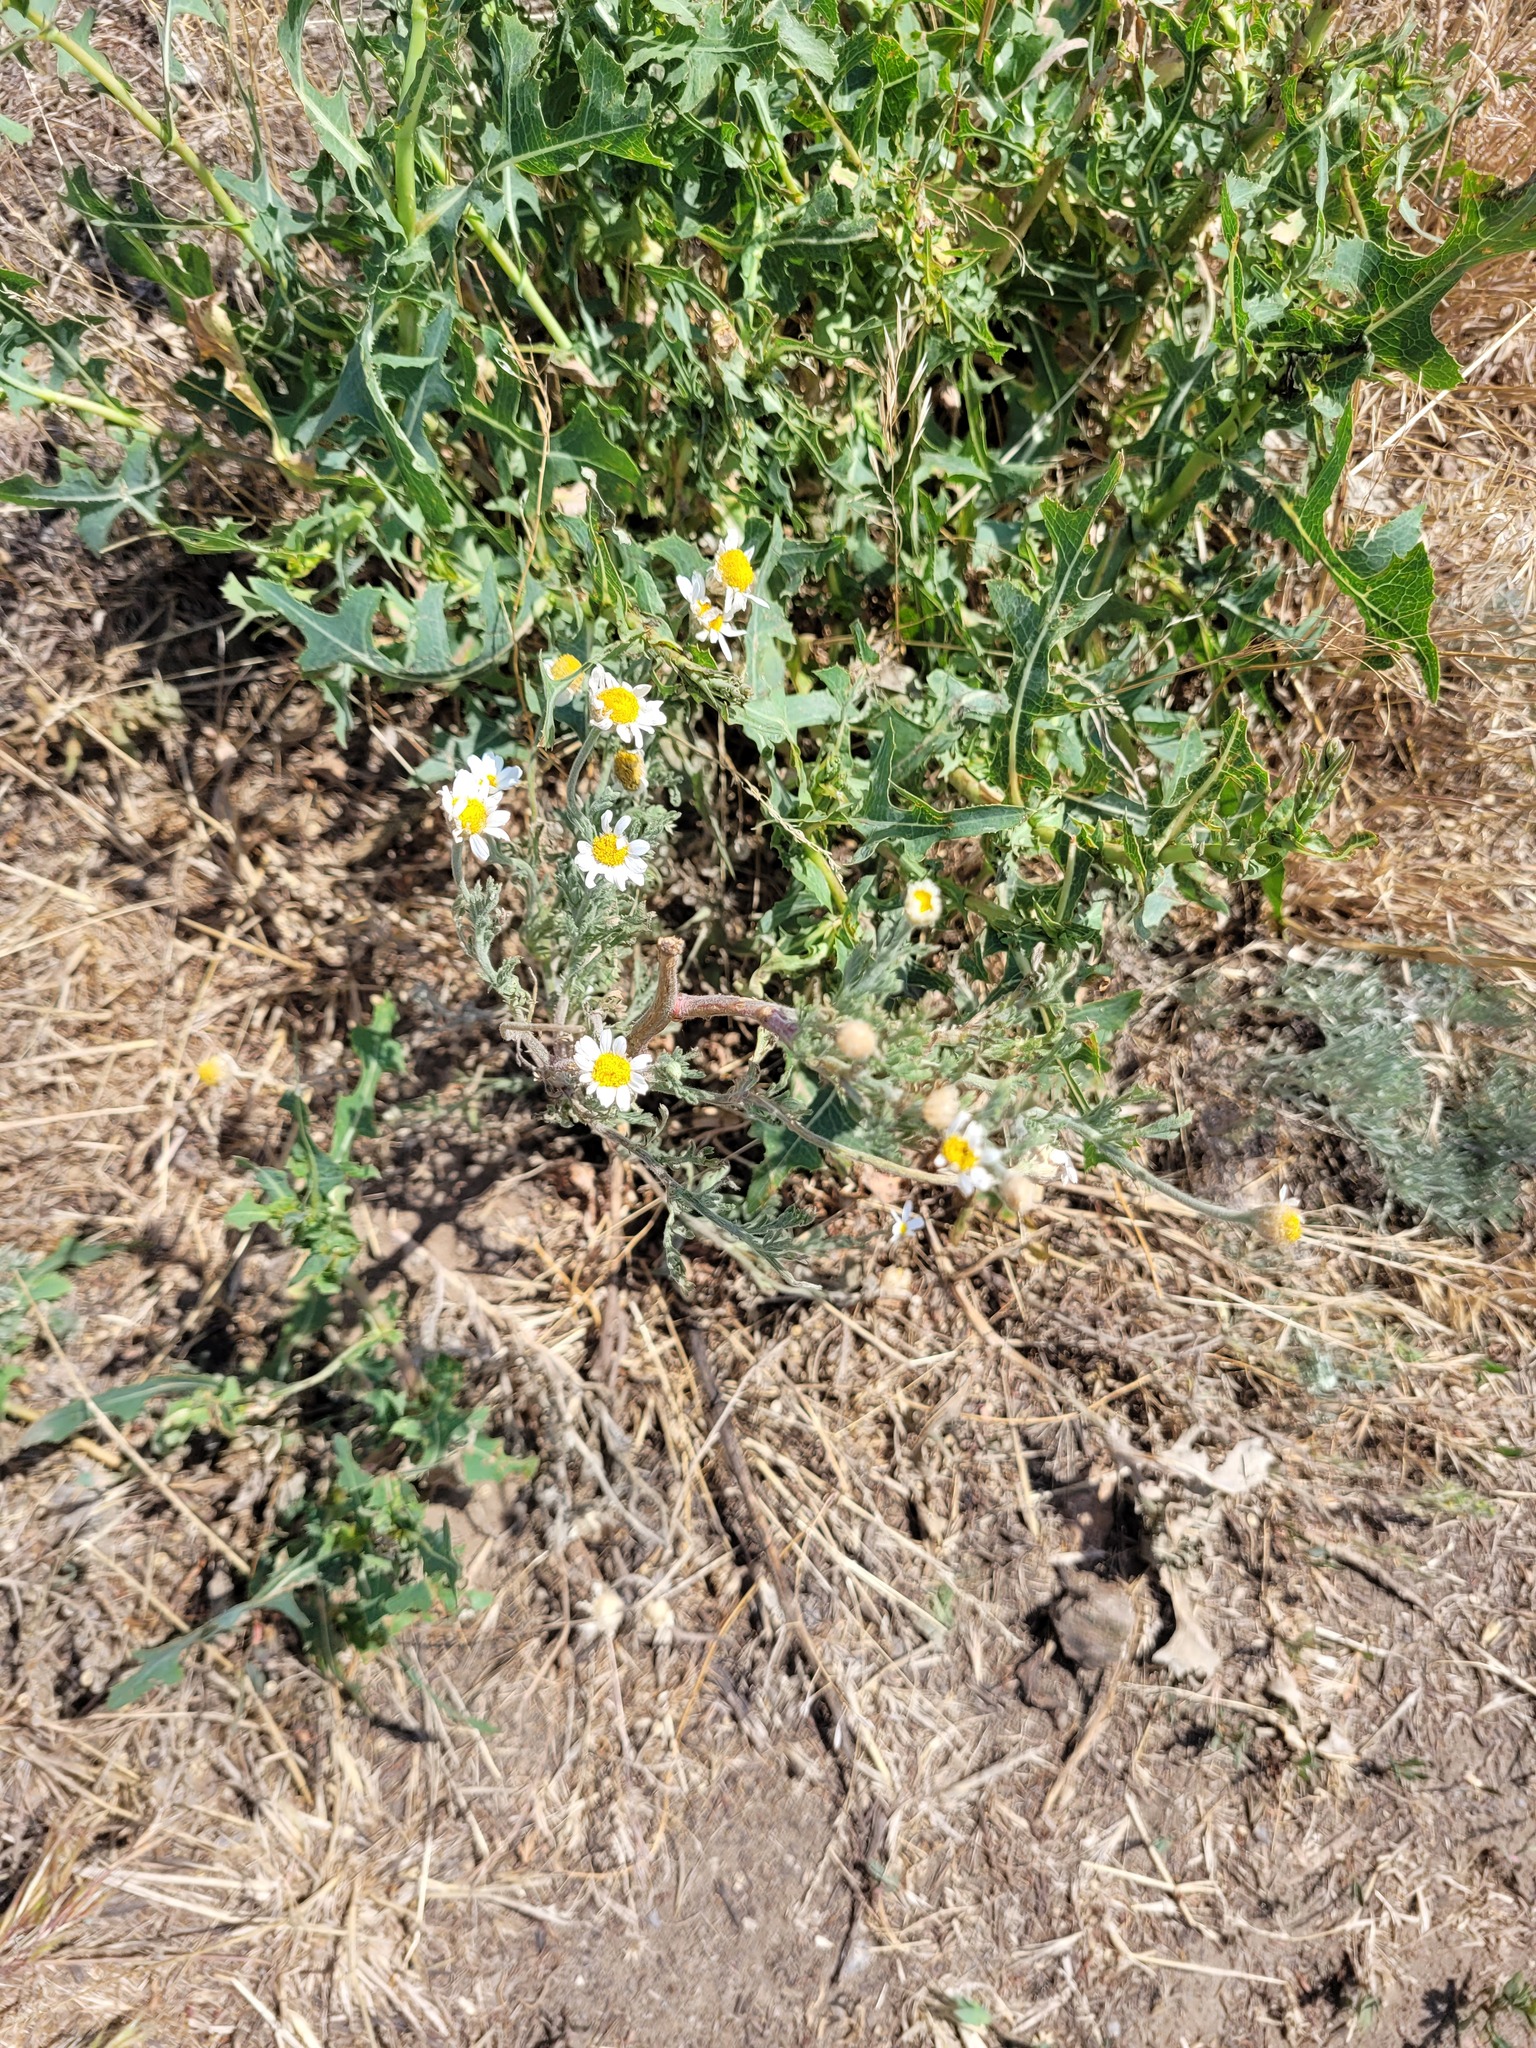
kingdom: Plantae
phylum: Tracheophyta
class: Magnoliopsida
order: Asterales
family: Asteraceae
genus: Anthemis
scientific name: Anthemis ruthenica
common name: Eastern chamomile
